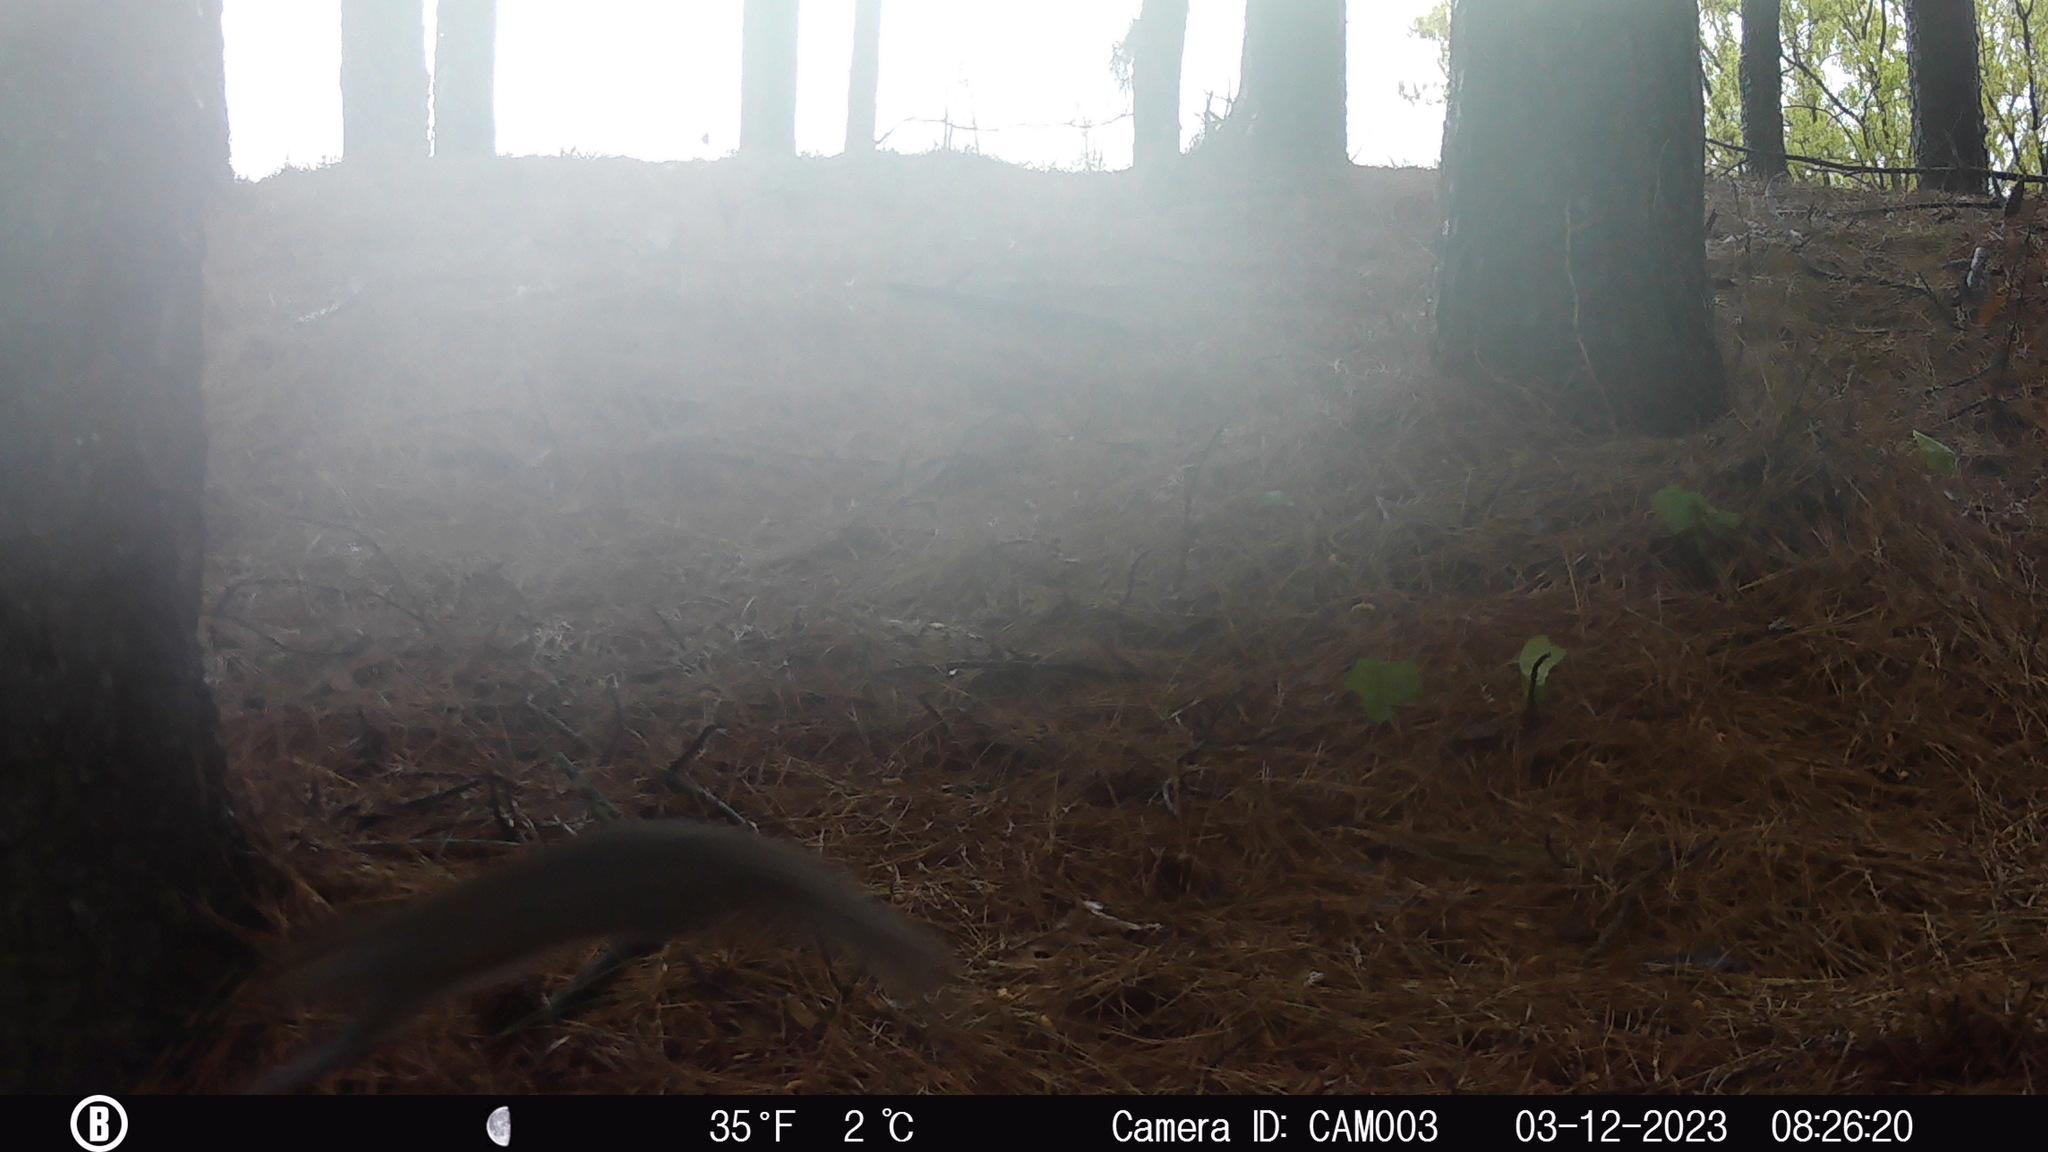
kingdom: Animalia
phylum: Chordata
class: Mammalia
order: Rodentia
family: Sciuridae
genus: Sciurus
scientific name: Sciurus carolinensis
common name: Eastern gray squirrel
